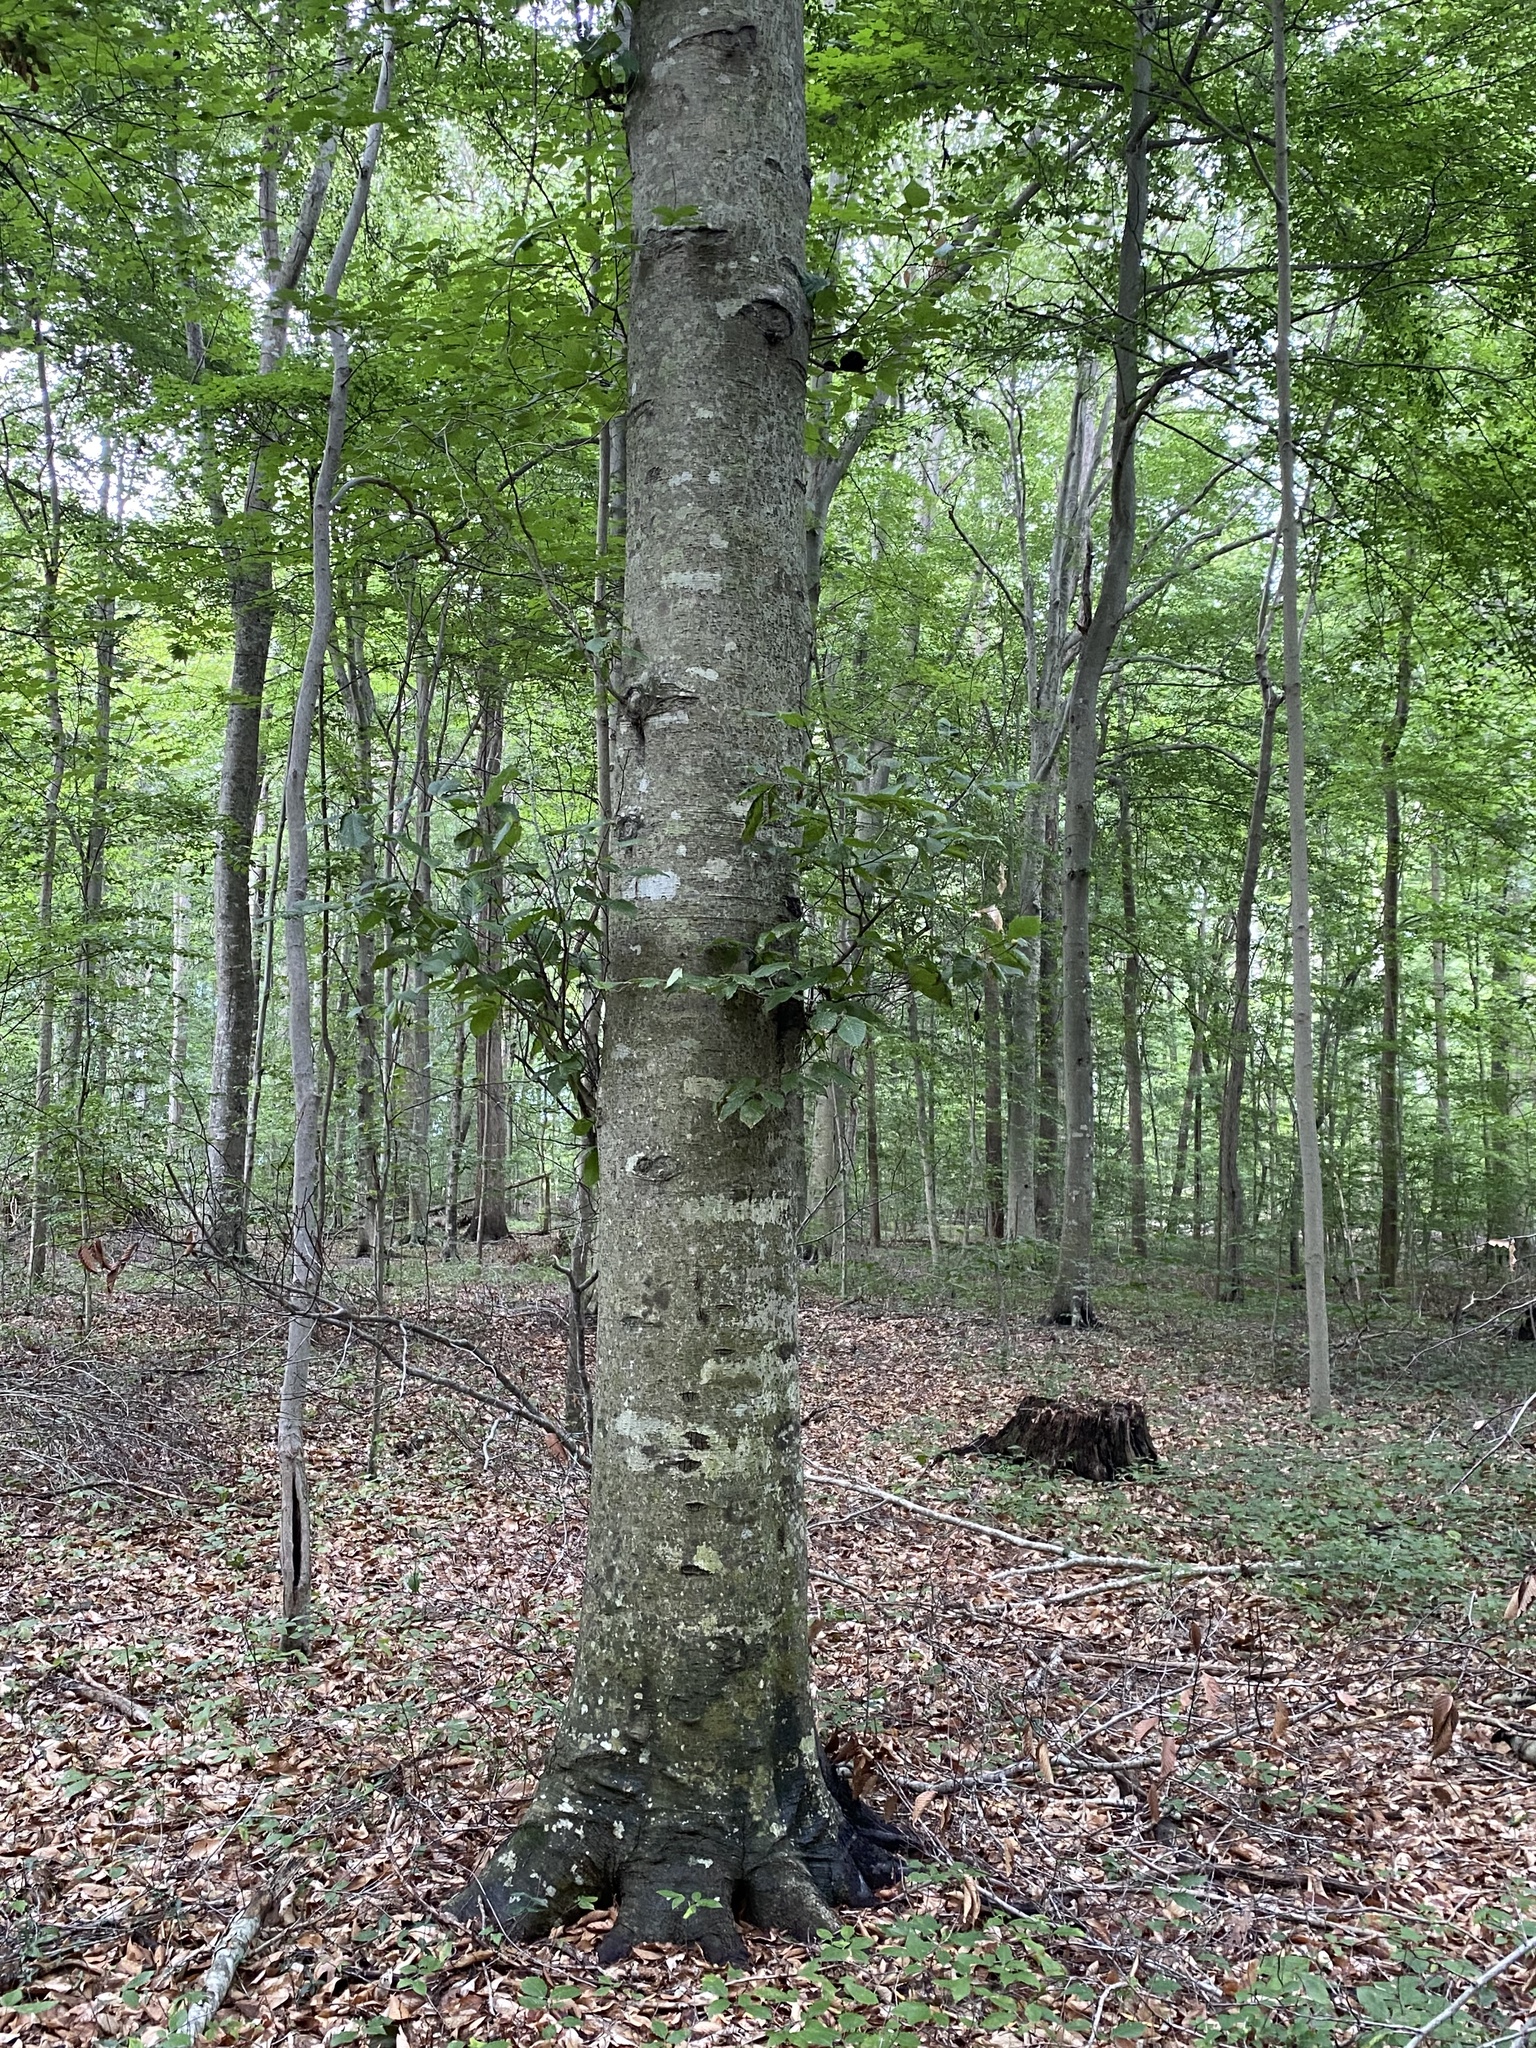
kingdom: Plantae
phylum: Tracheophyta
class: Magnoliopsida
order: Fagales
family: Fagaceae
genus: Fagus
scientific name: Fagus grandifolia
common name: American beech
